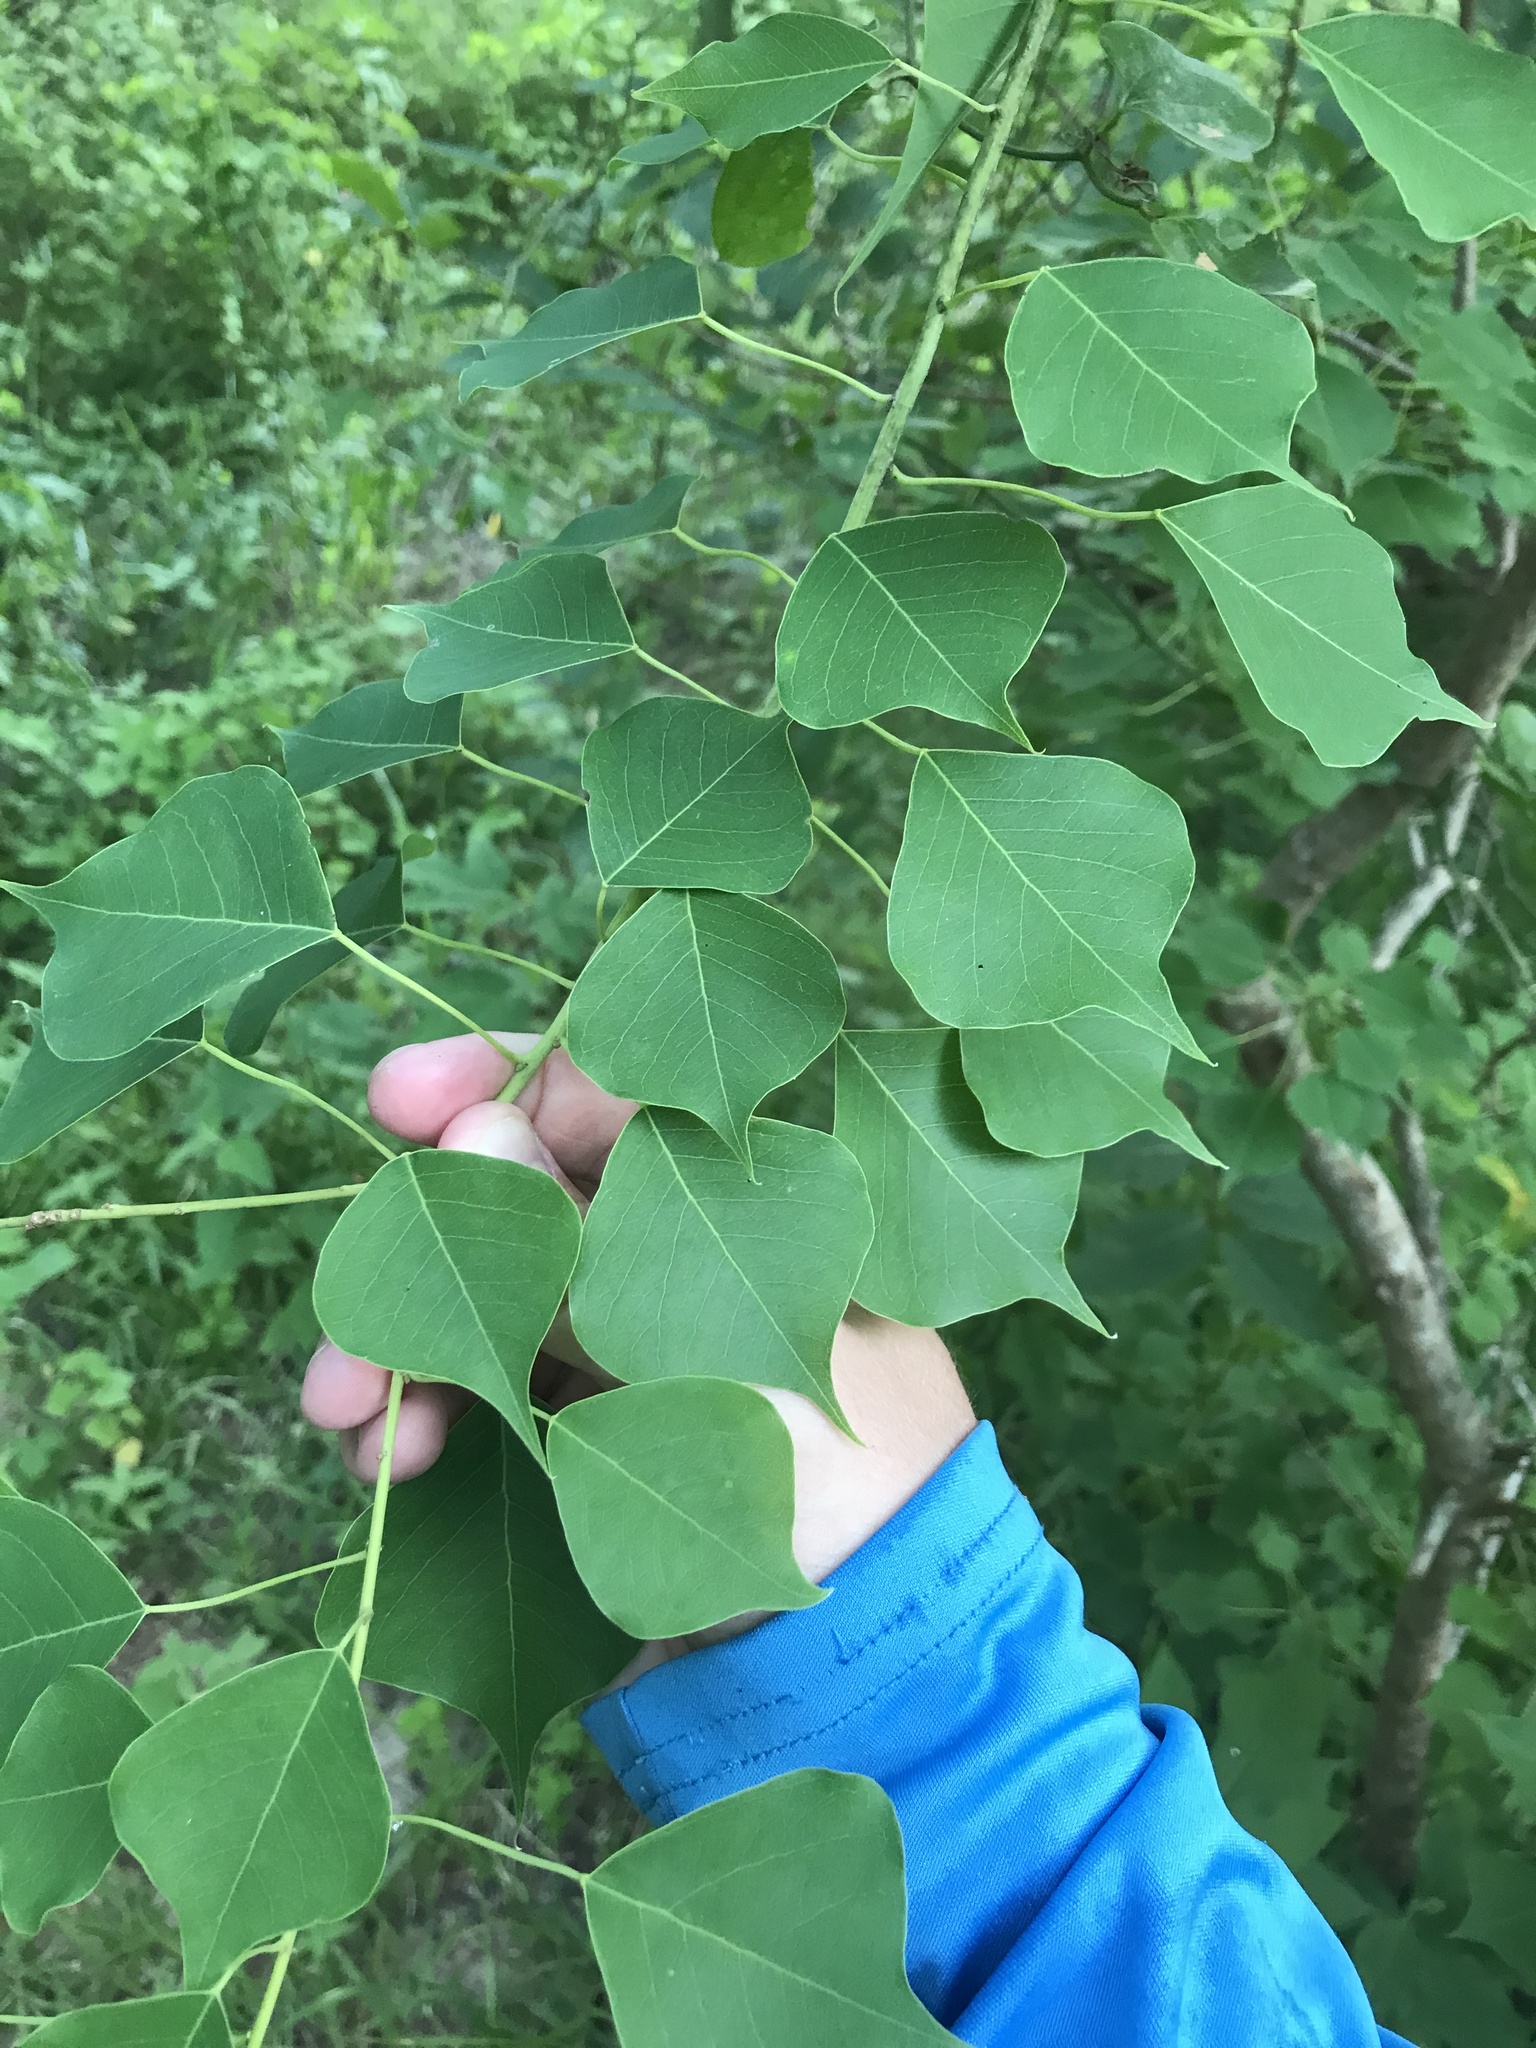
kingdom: Plantae
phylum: Tracheophyta
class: Magnoliopsida
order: Malpighiales
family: Euphorbiaceae
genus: Triadica
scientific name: Triadica sebifera
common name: Chinese tallow
